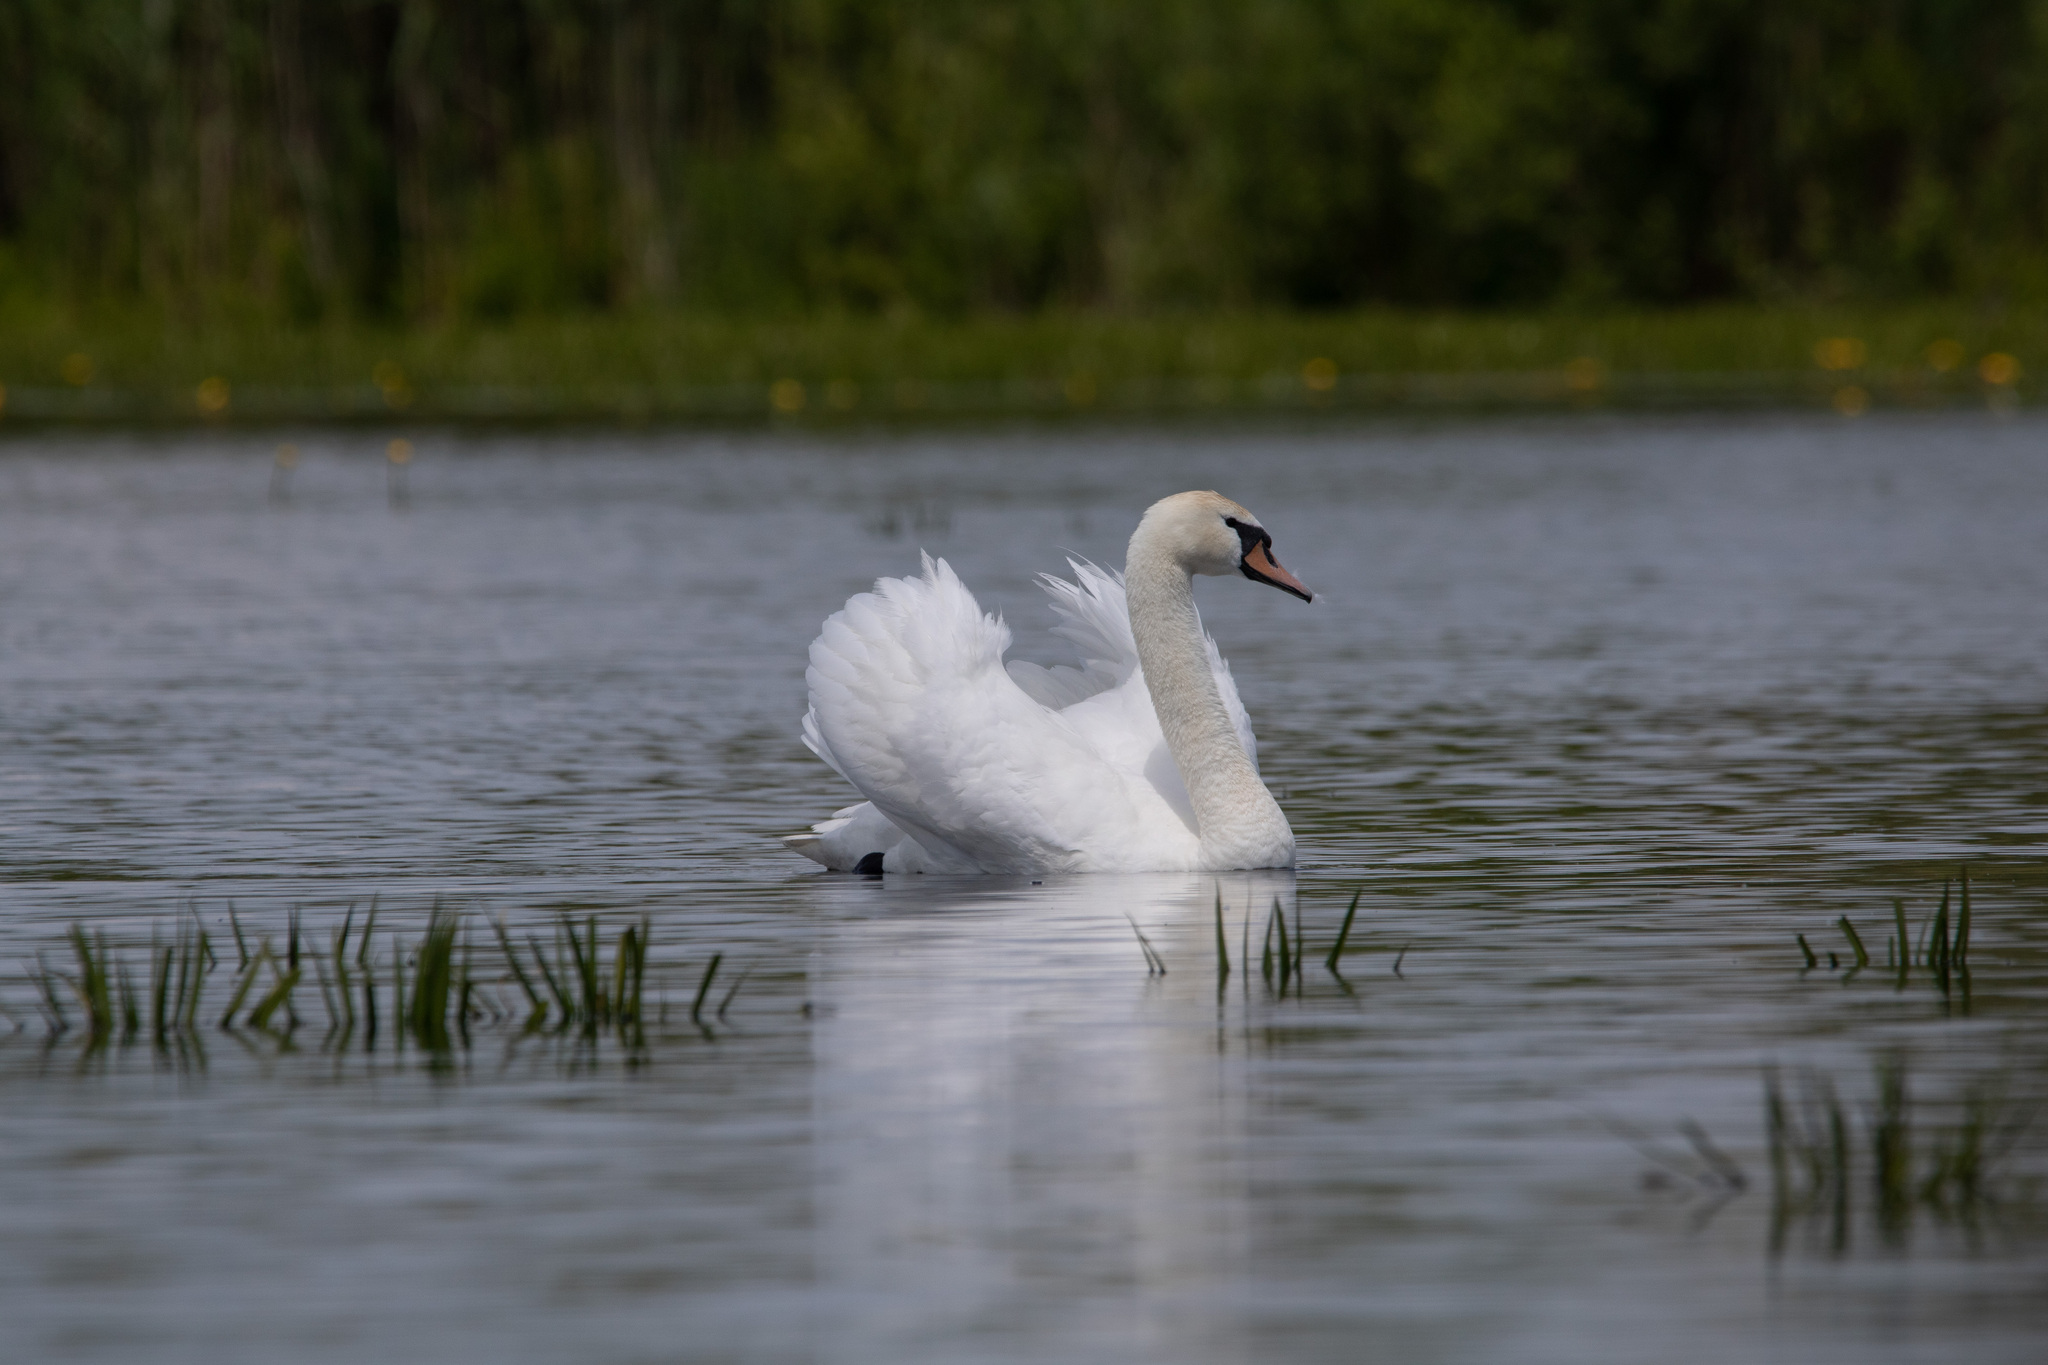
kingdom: Animalia
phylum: Chordata
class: Aves
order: Anseriformes
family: Anatidae
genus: Cygnus
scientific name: Cygnus olor
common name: Mute swan
